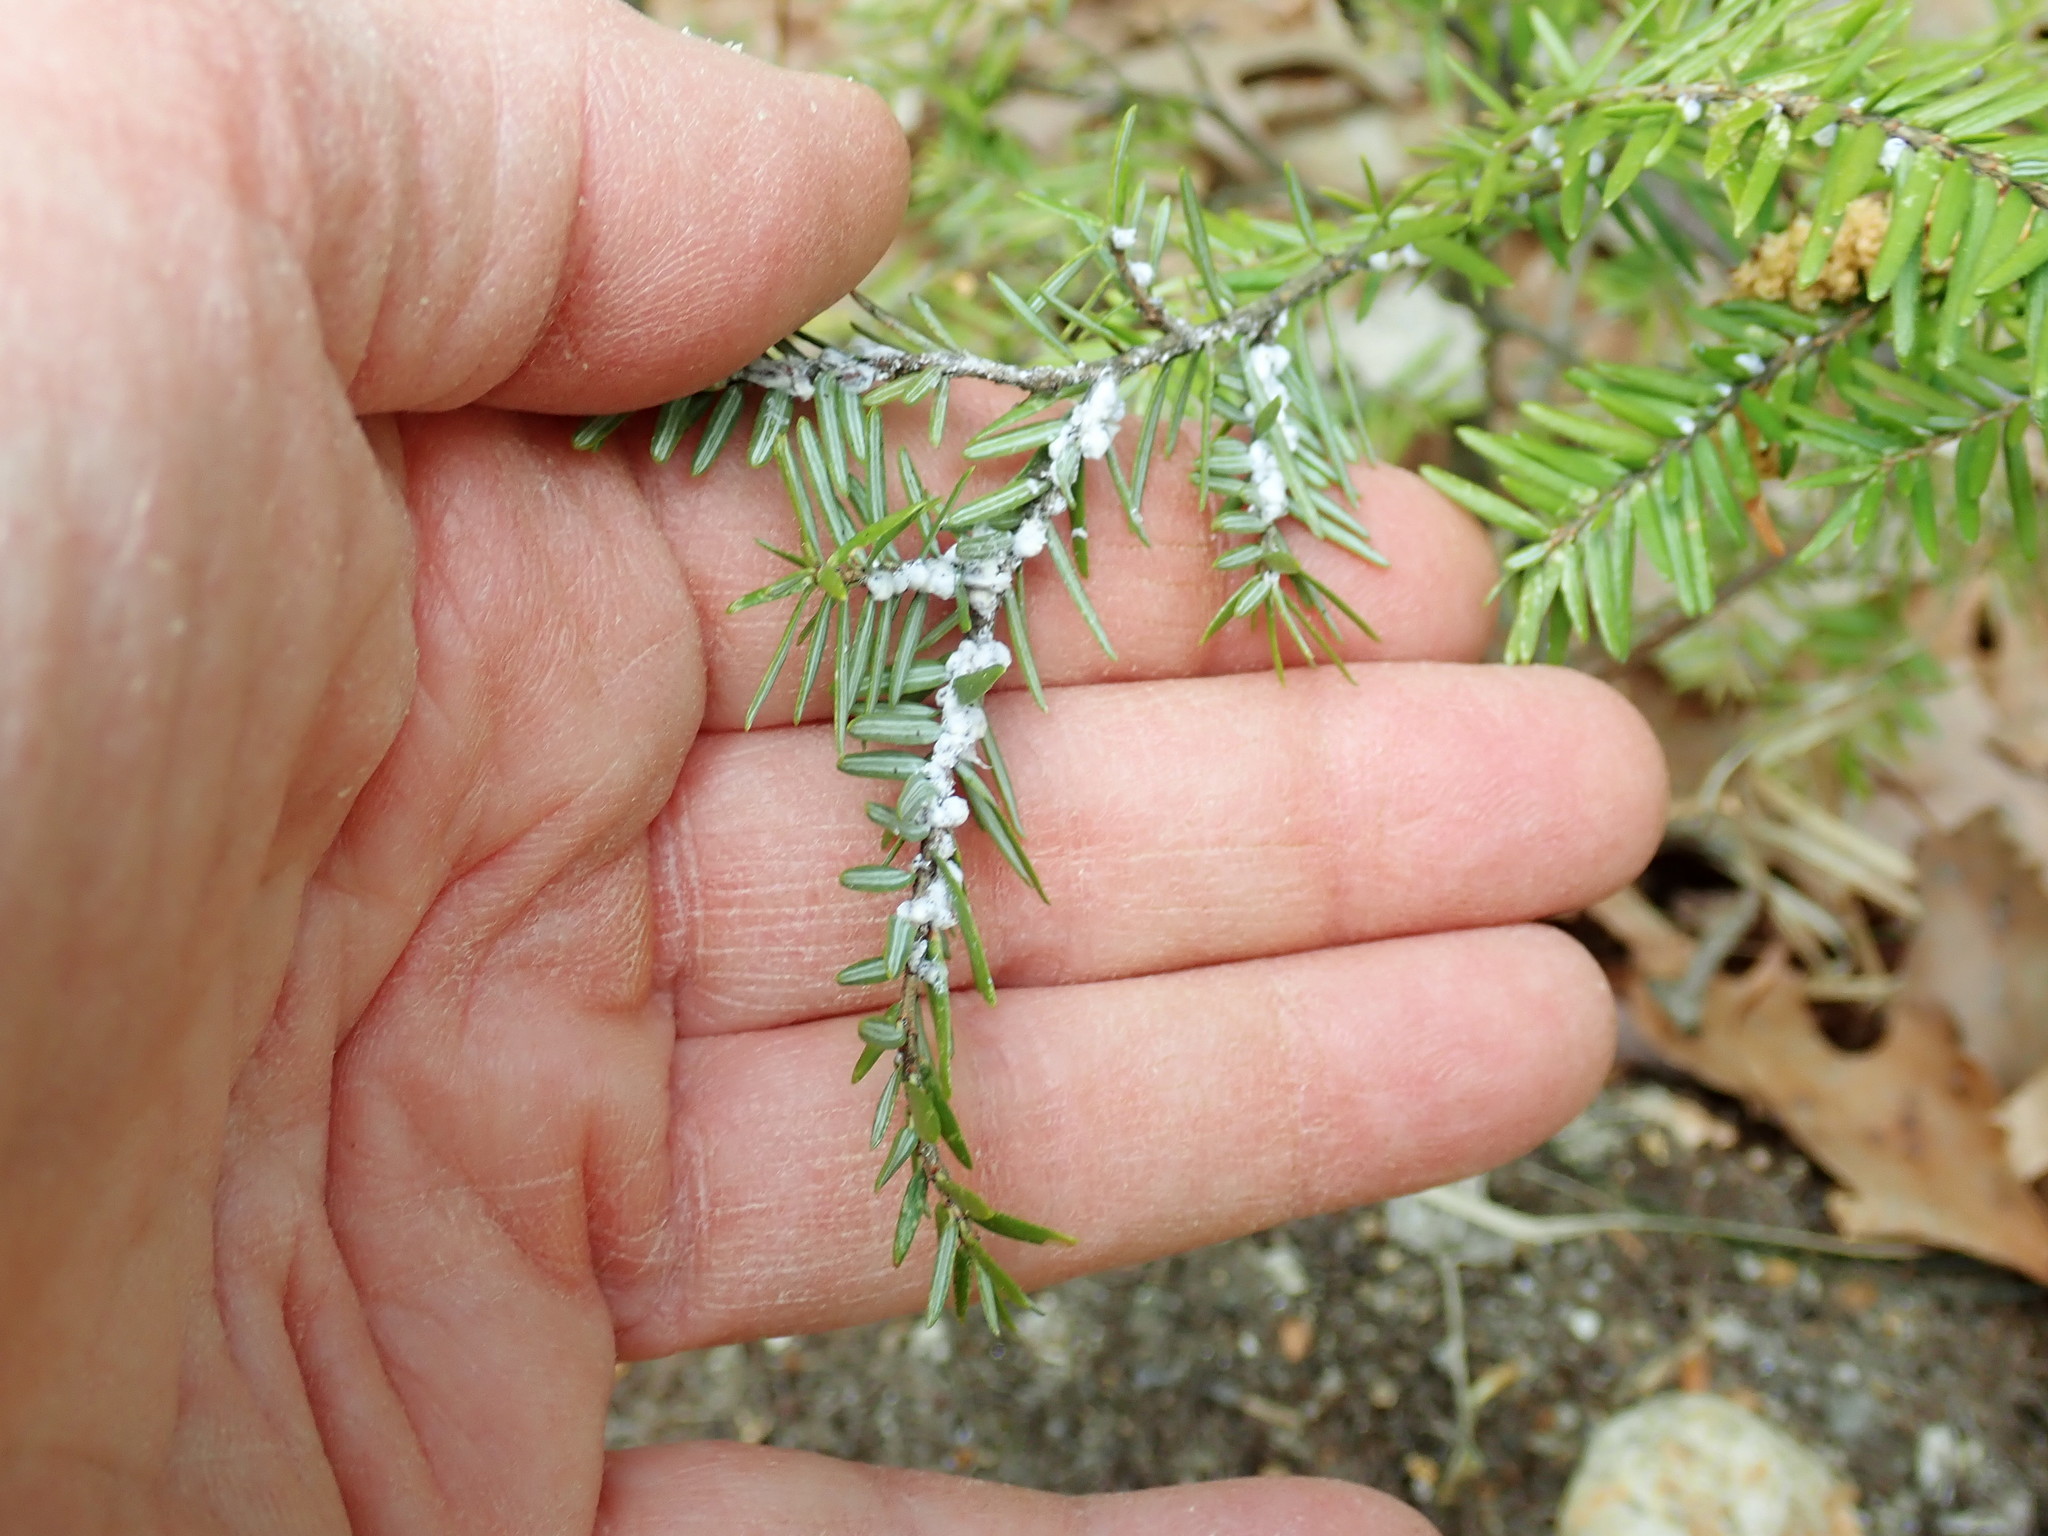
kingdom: Animalia
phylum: Arthropoda
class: Insecta
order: Hemiptera
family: Adelgidae
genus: Adelges
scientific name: Adelges tsugae
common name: Hemlock woolly adelgid
